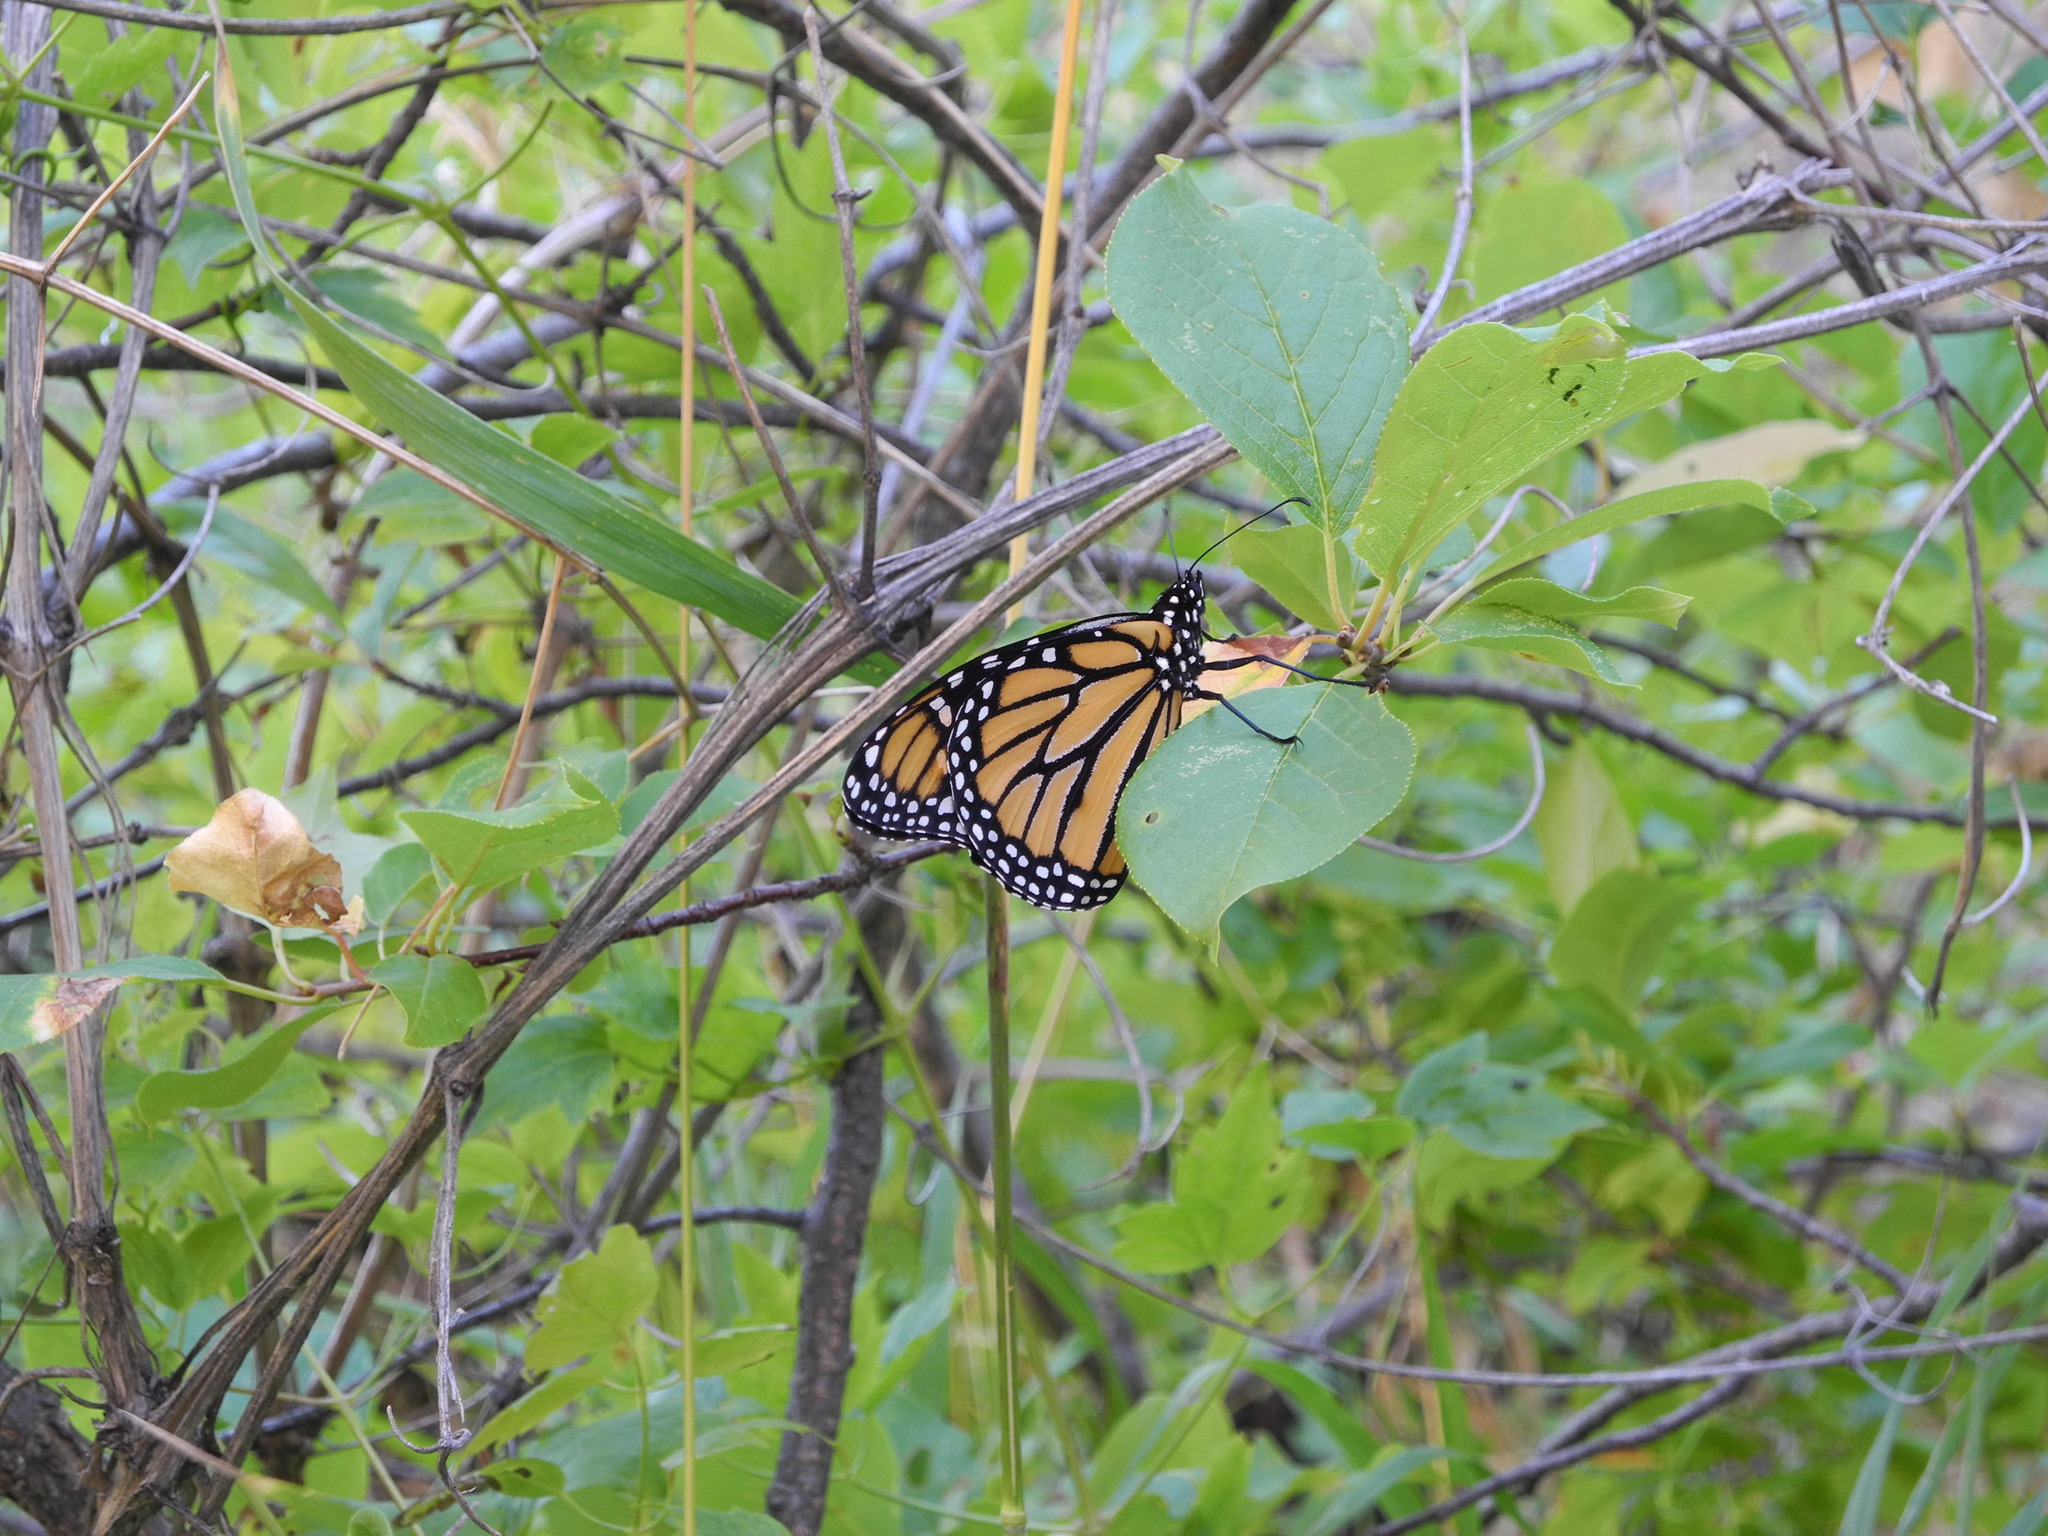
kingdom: Animalia
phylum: Arthropoda
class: Insecta
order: Lepidoptera
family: Nymphalidae
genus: Danaus
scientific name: Danaus plexippus
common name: Monarch
